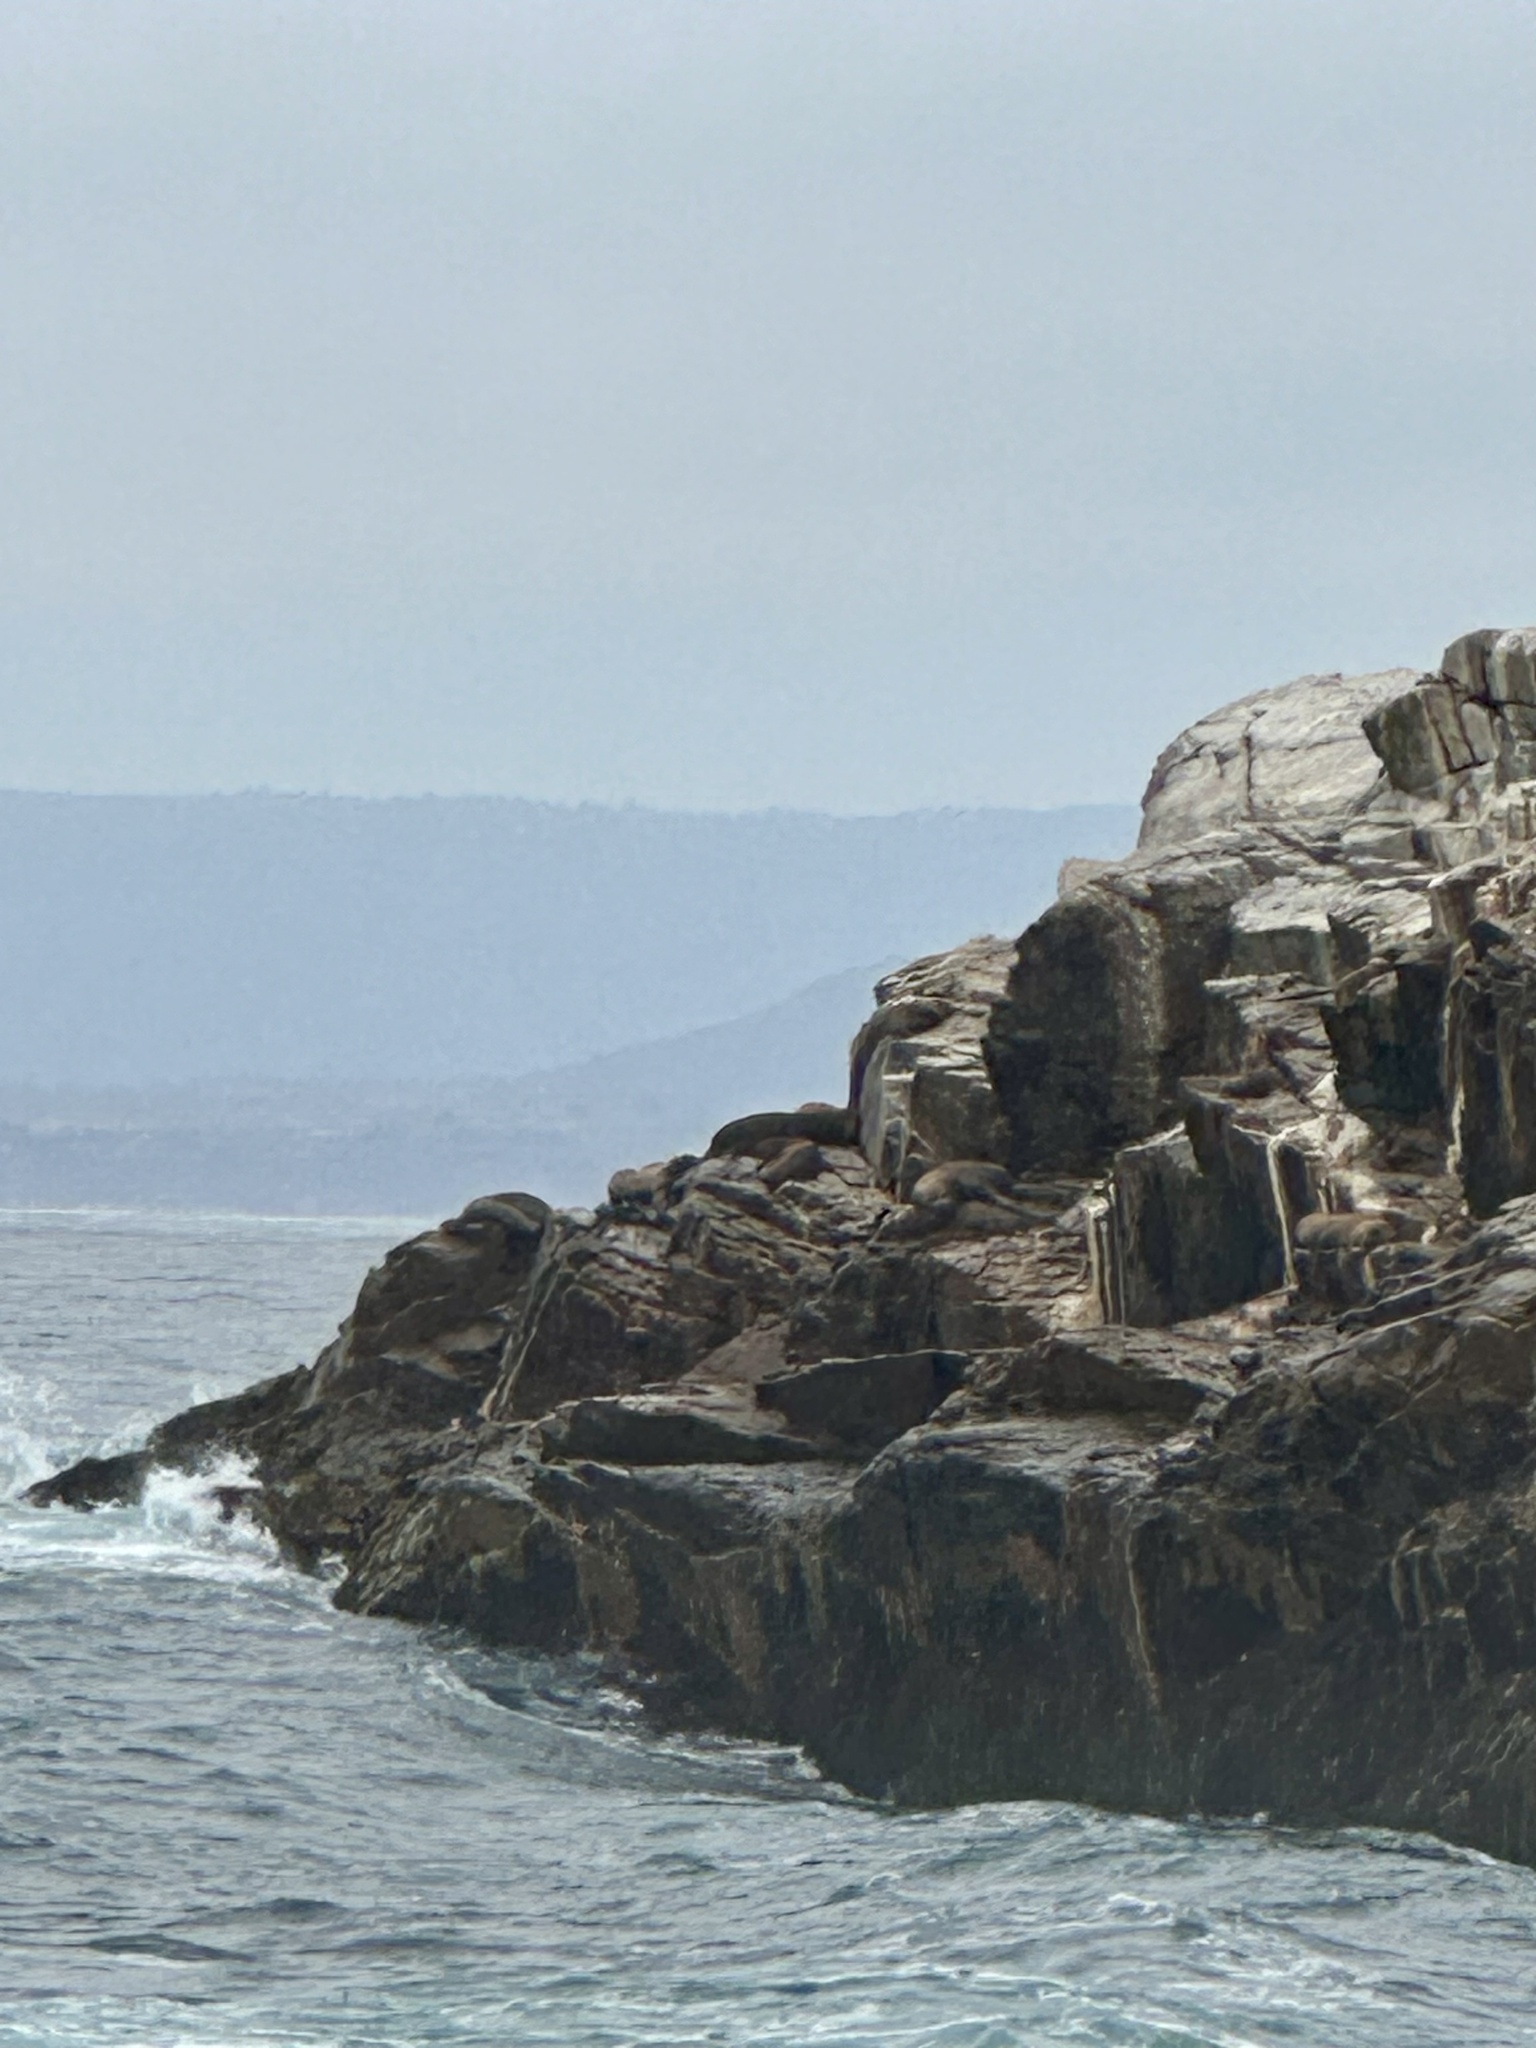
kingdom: Animalia
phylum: Chordata
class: Mammalia
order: Carnivora
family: Otariidae
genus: Otaria
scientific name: Otaria byronia
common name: South american sea lion
